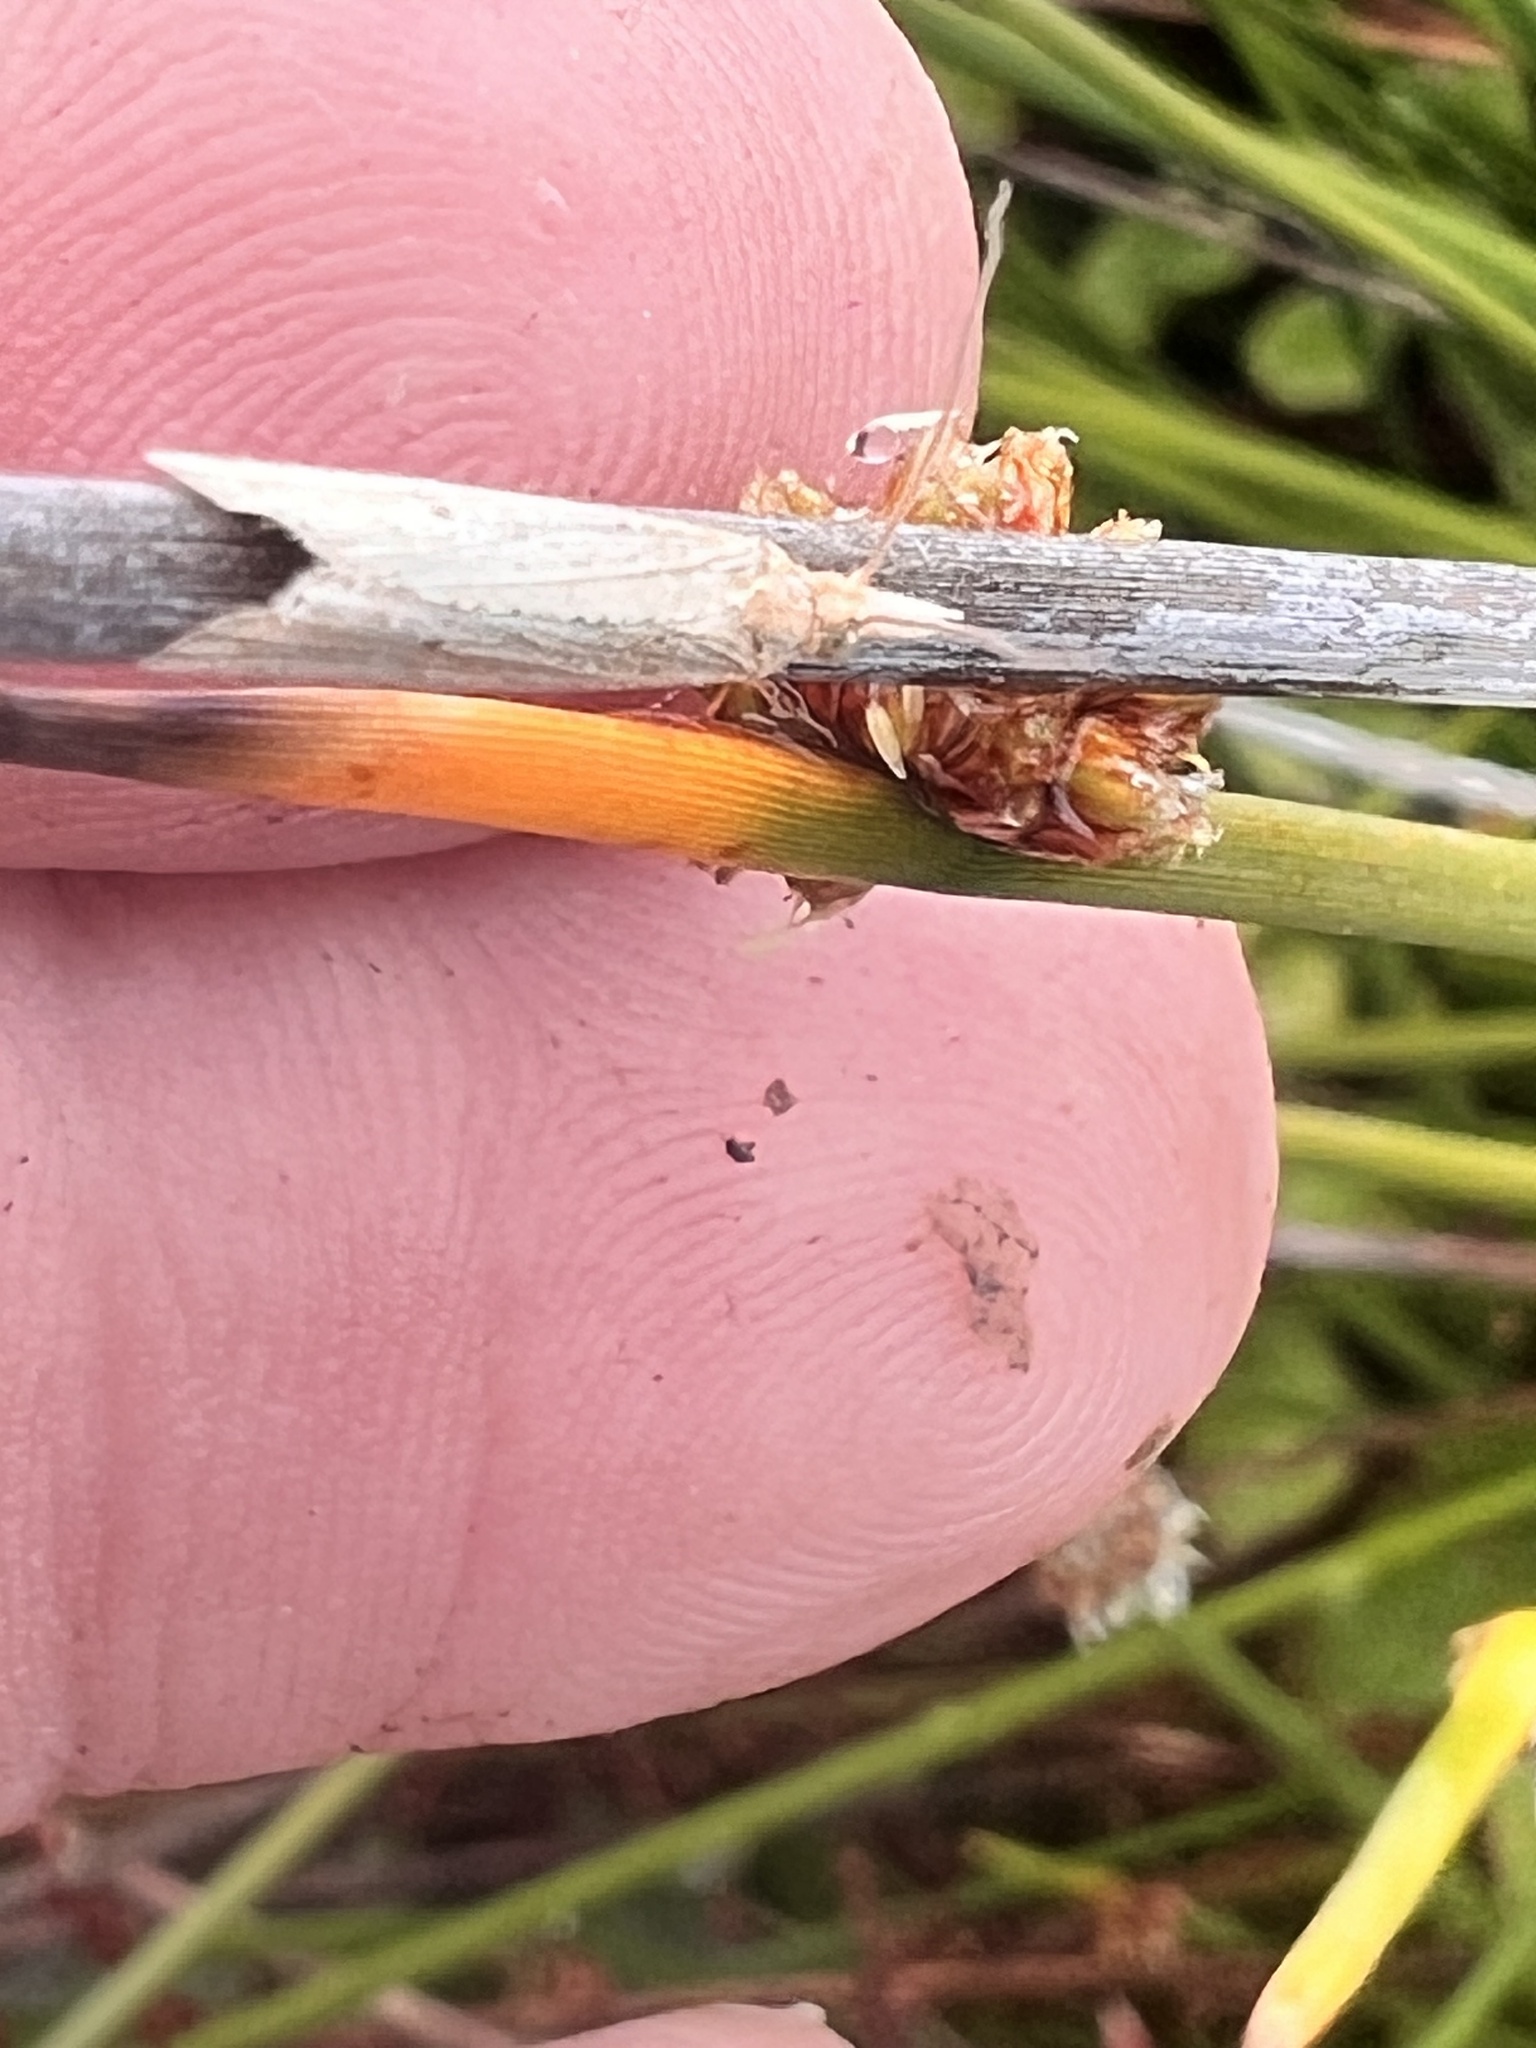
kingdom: Plantae
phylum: Tracheophyta
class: Liliopsida
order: Poales
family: Cyperaceae
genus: Ficinia
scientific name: Ficinia nodosa
